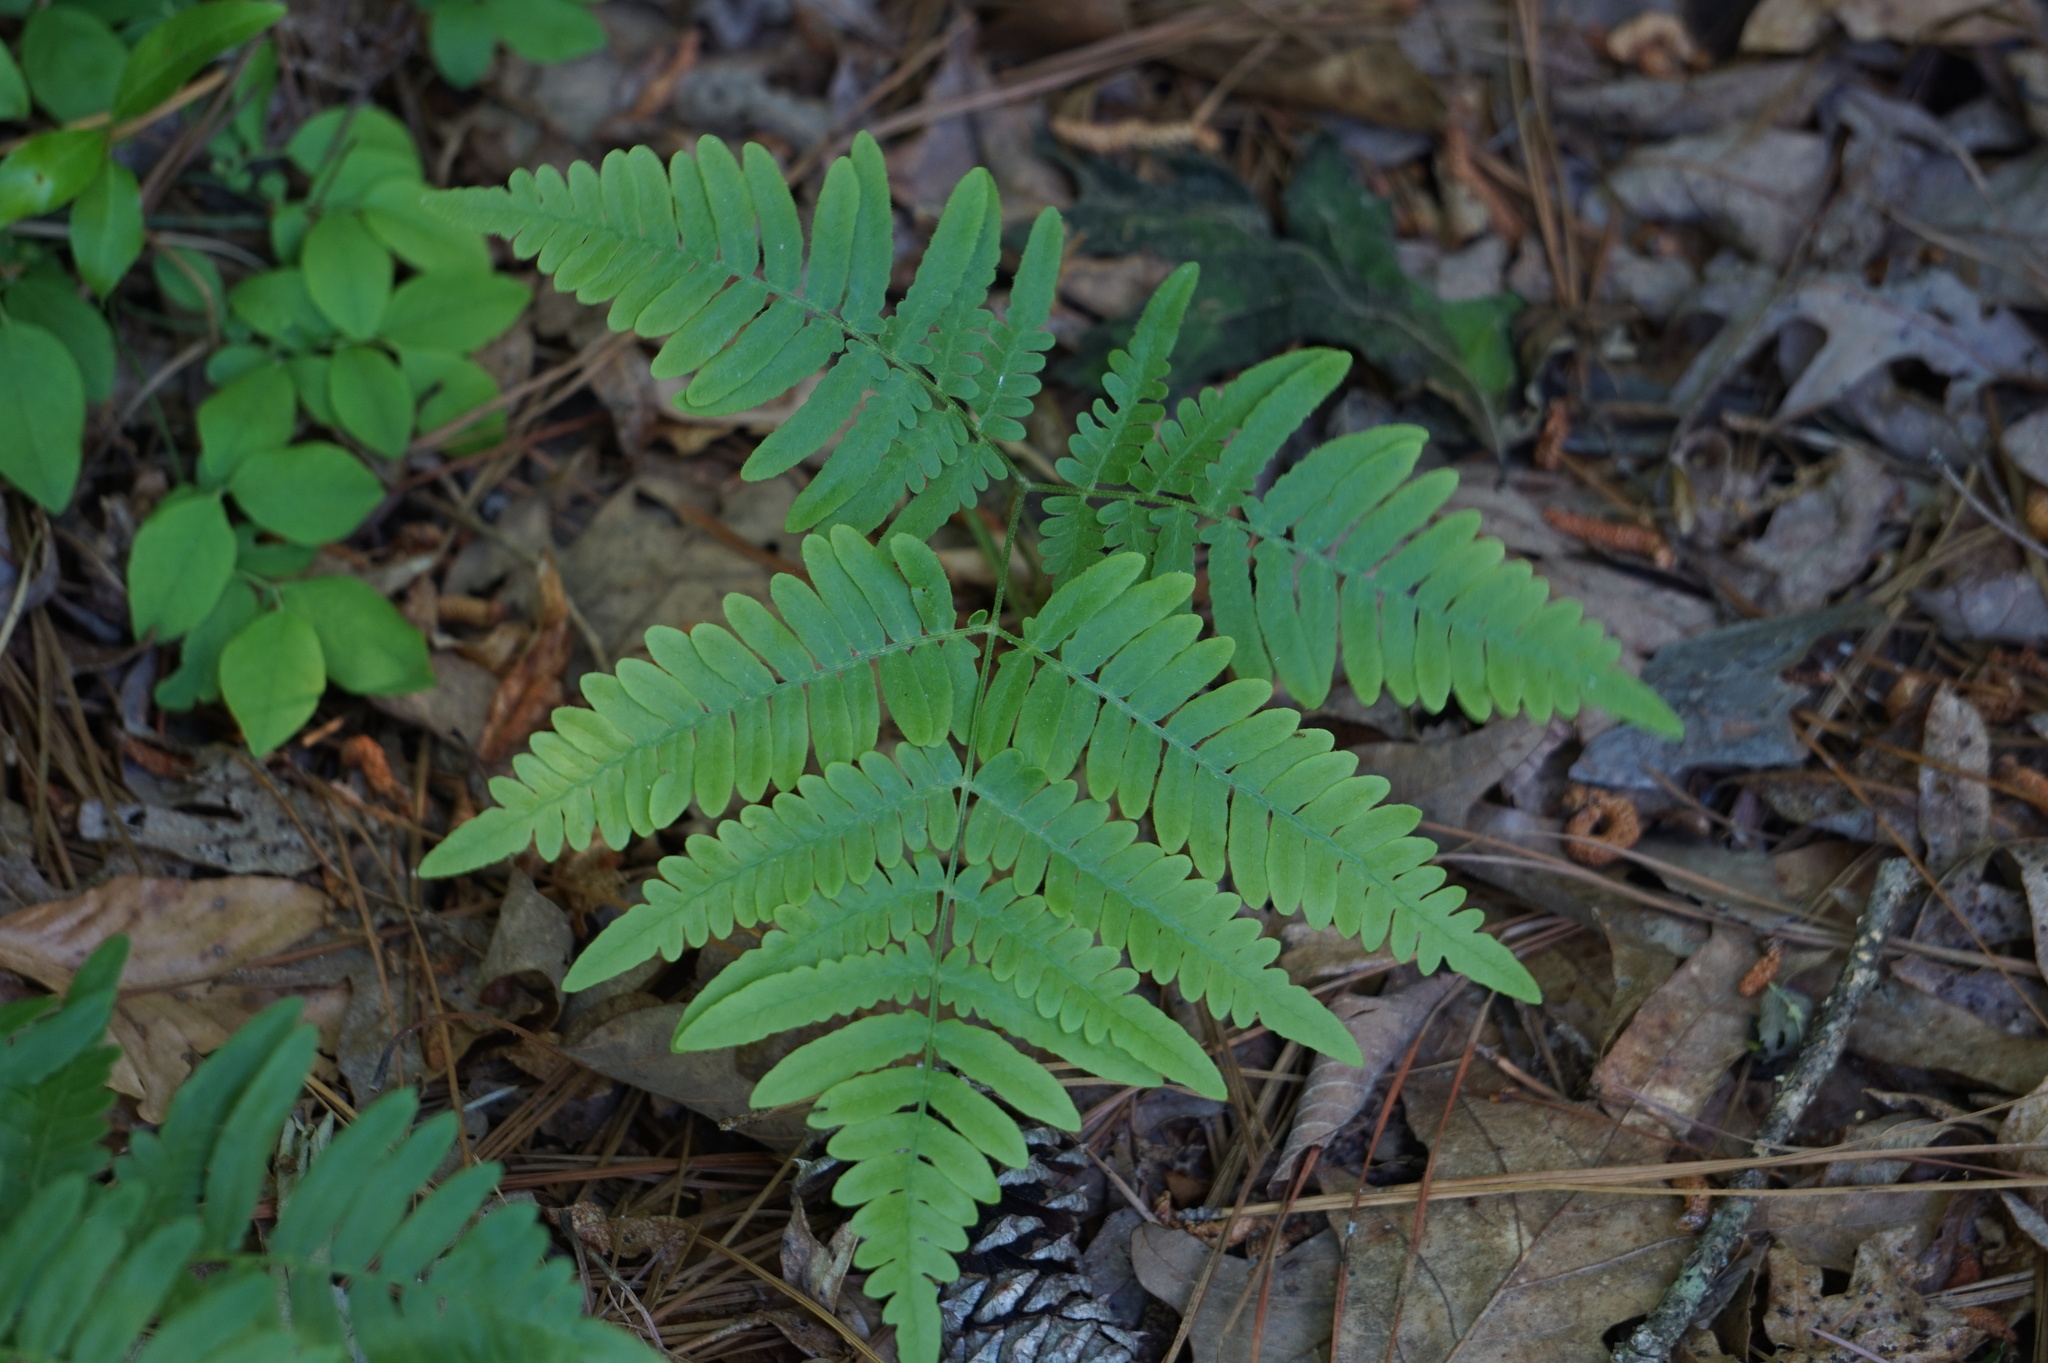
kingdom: Plantae
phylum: Tracheophyta
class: Polypodiopsida
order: Polypodiales
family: Dennstaedtiaceae
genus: Pteridium
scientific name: Pteridium aquilinum
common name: Bracken
